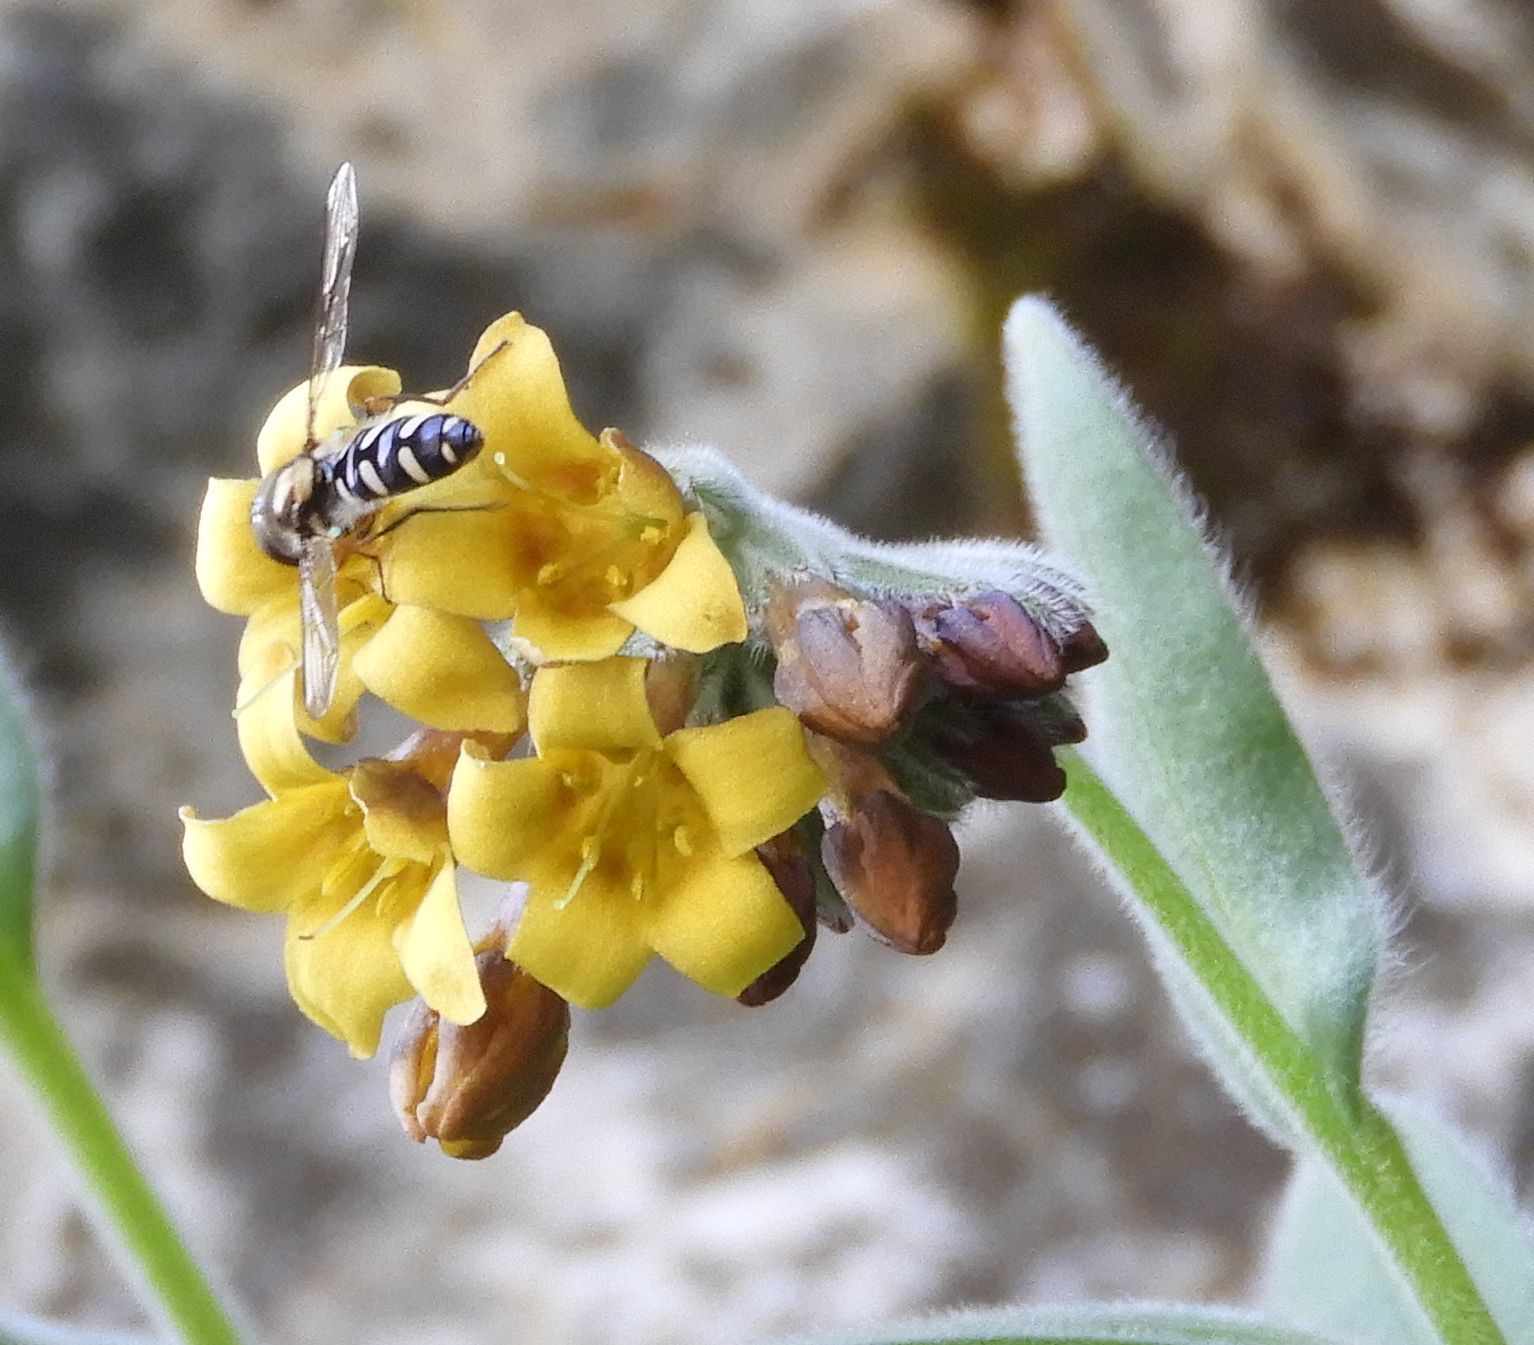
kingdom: Animalia
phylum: Arthropoda
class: Insecta
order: Diptera
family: Syrphidae
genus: Melangyna
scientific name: Melangyna novaezelandiae
